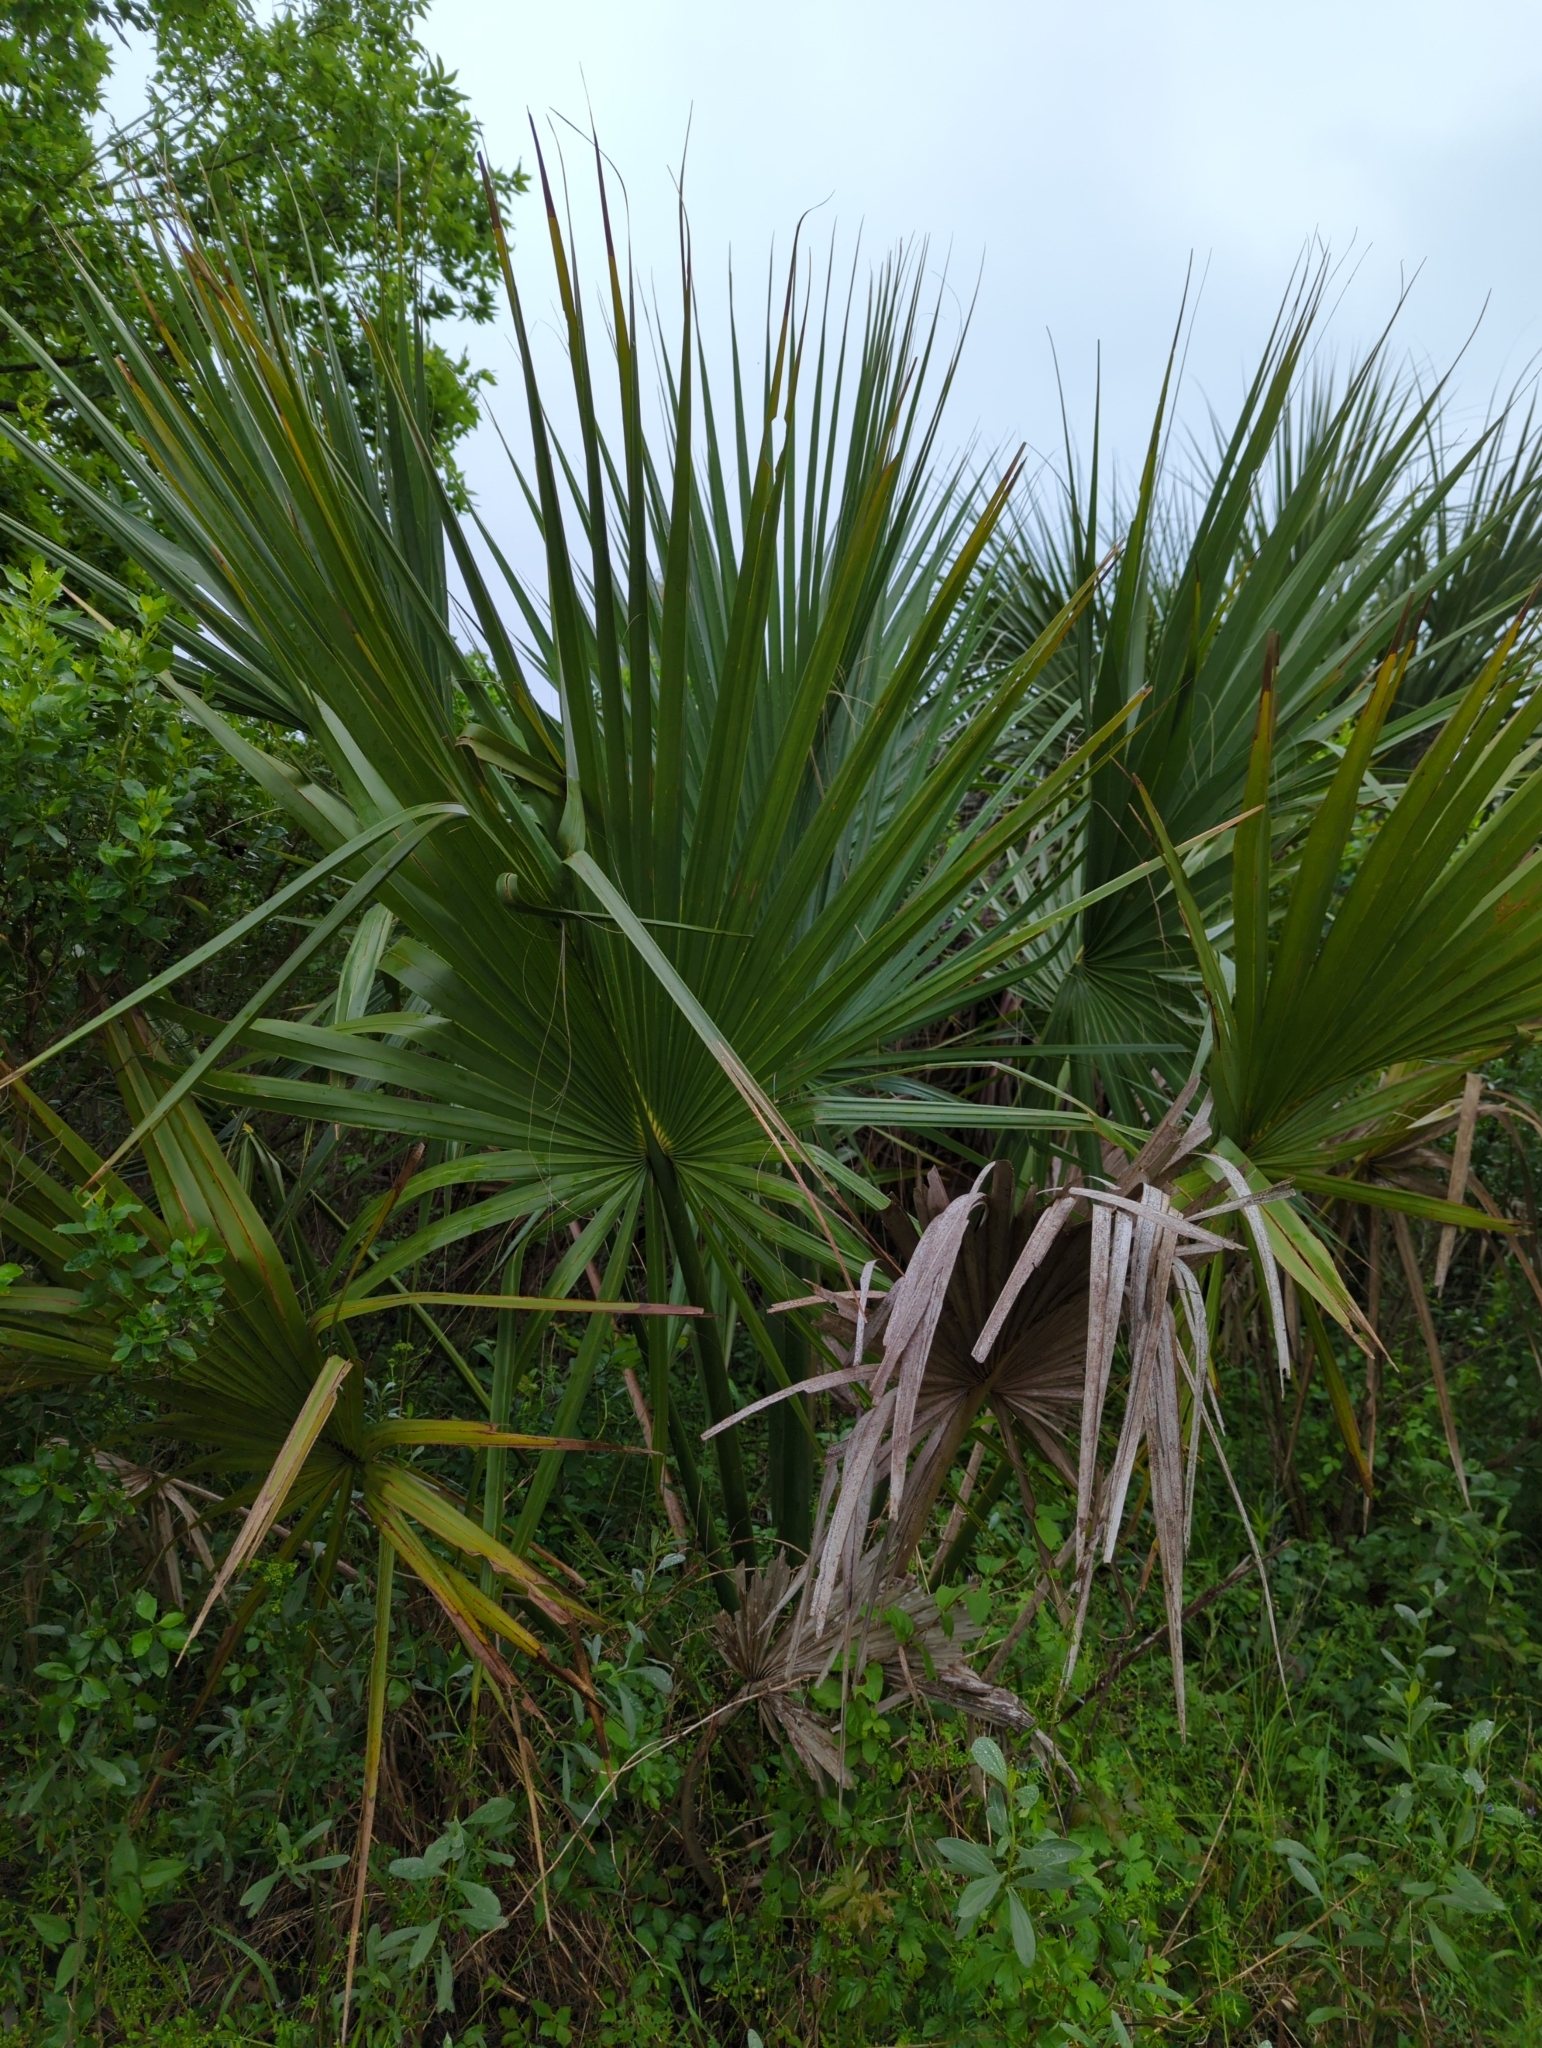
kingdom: Plantae
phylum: Tracheophyta
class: Liliopsida
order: Arecales
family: Arecaceae
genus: Sabal
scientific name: Sabal minor
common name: Dwarf palmetto
